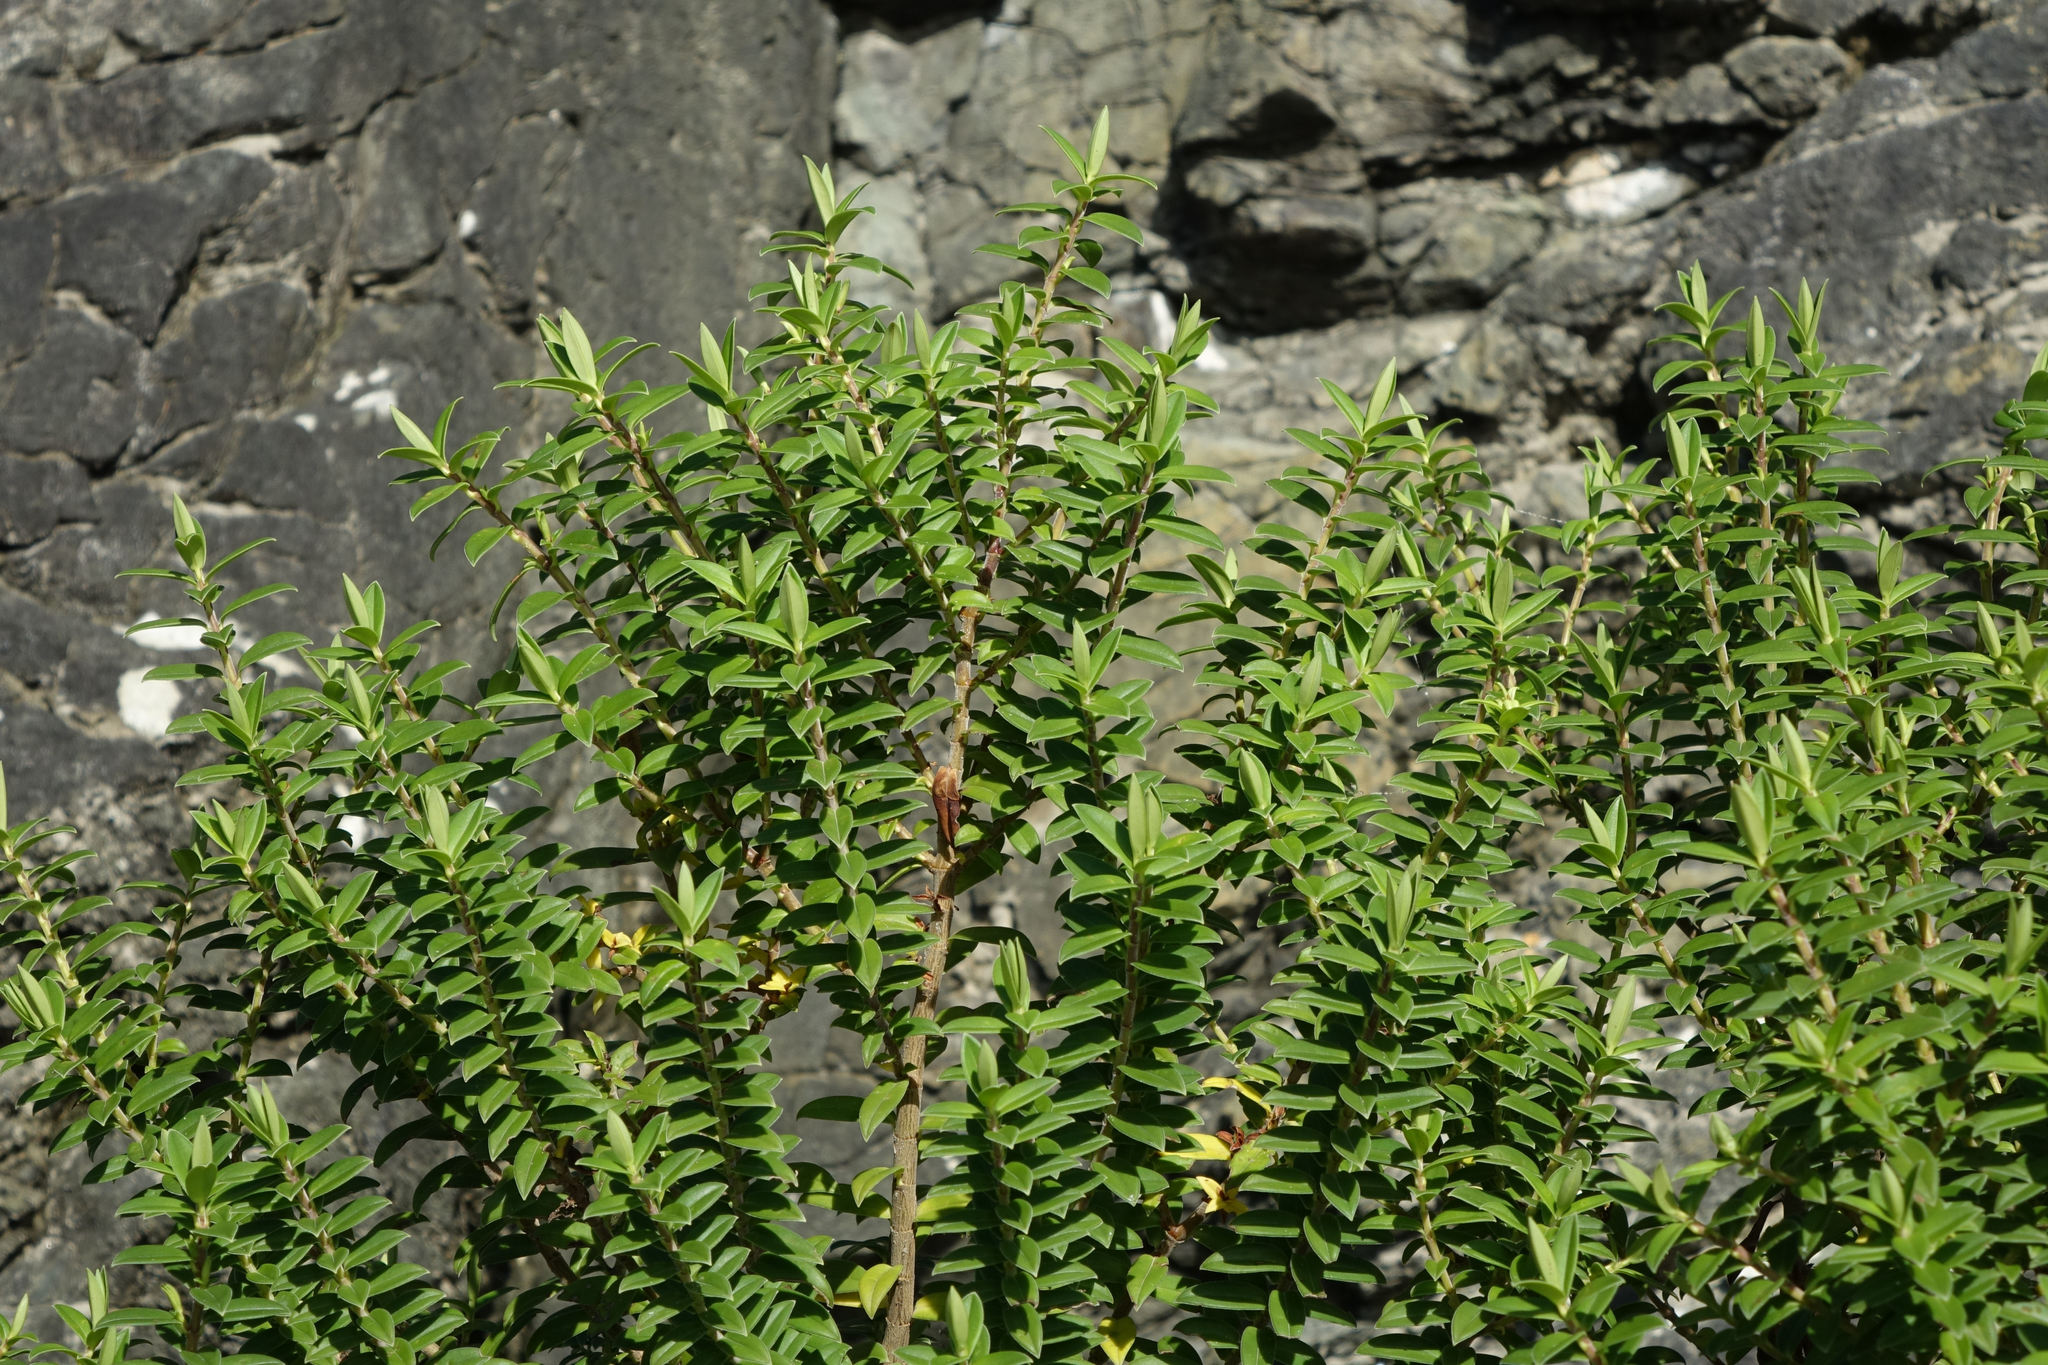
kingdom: Plantae
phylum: Tracheophyta
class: Magnoliopsida
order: Lamiales
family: Plantaginaceae
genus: Veronica
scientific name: Veronica elliptica
